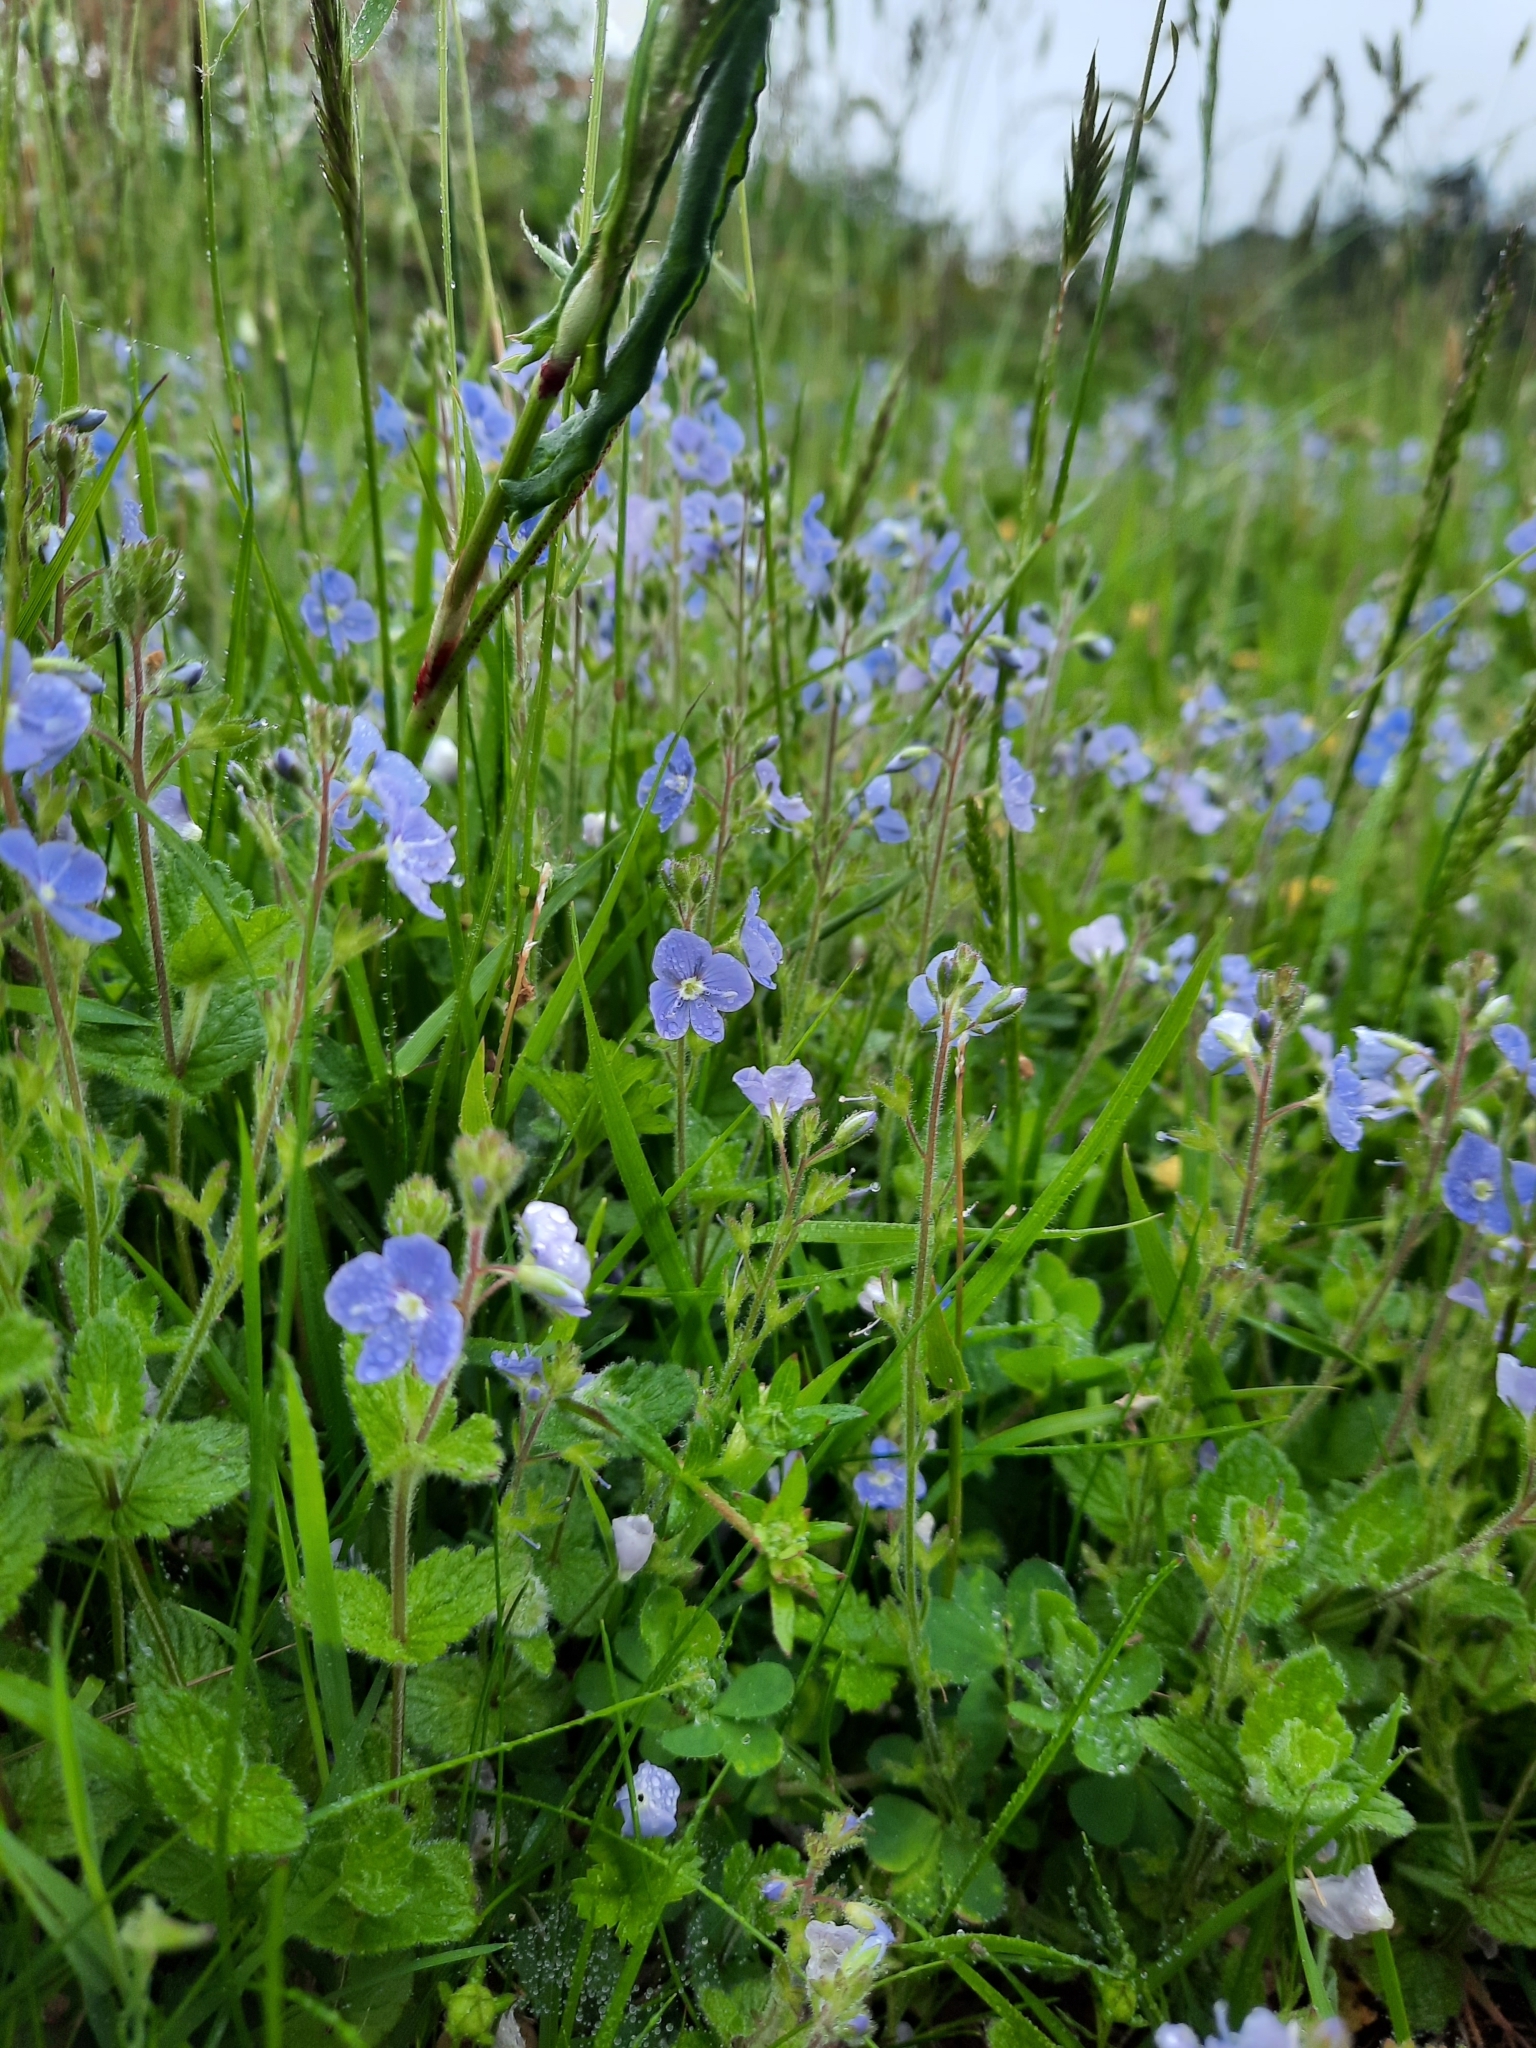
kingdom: Plantae
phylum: Tracheophyta
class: Magnoliopsida
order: Lamiales
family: Plantaginaceae
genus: Veronica
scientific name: Veronica chamaedrys
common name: Germander speedwell
